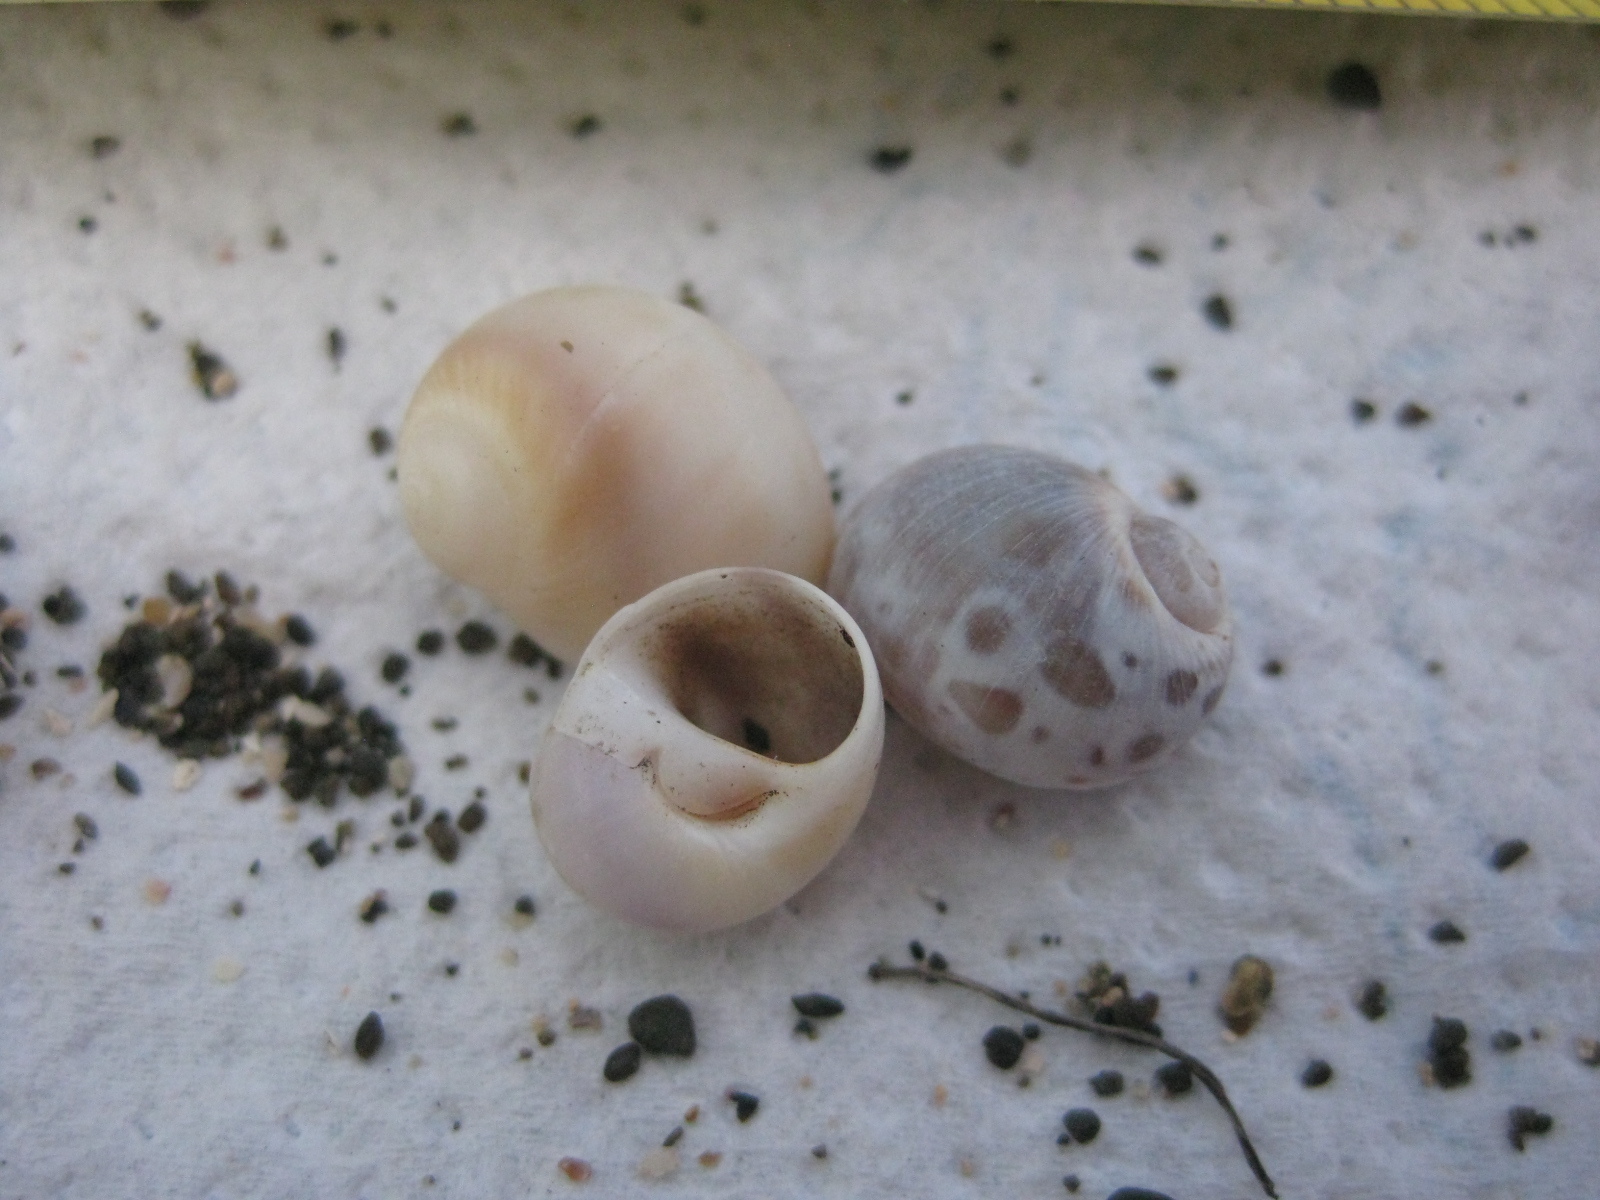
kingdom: Animalia
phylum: Mollusca
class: Gastropoda
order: Littorinimorpha
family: Naticidae
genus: Notocochlis
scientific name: Notocochlis gualteriana
